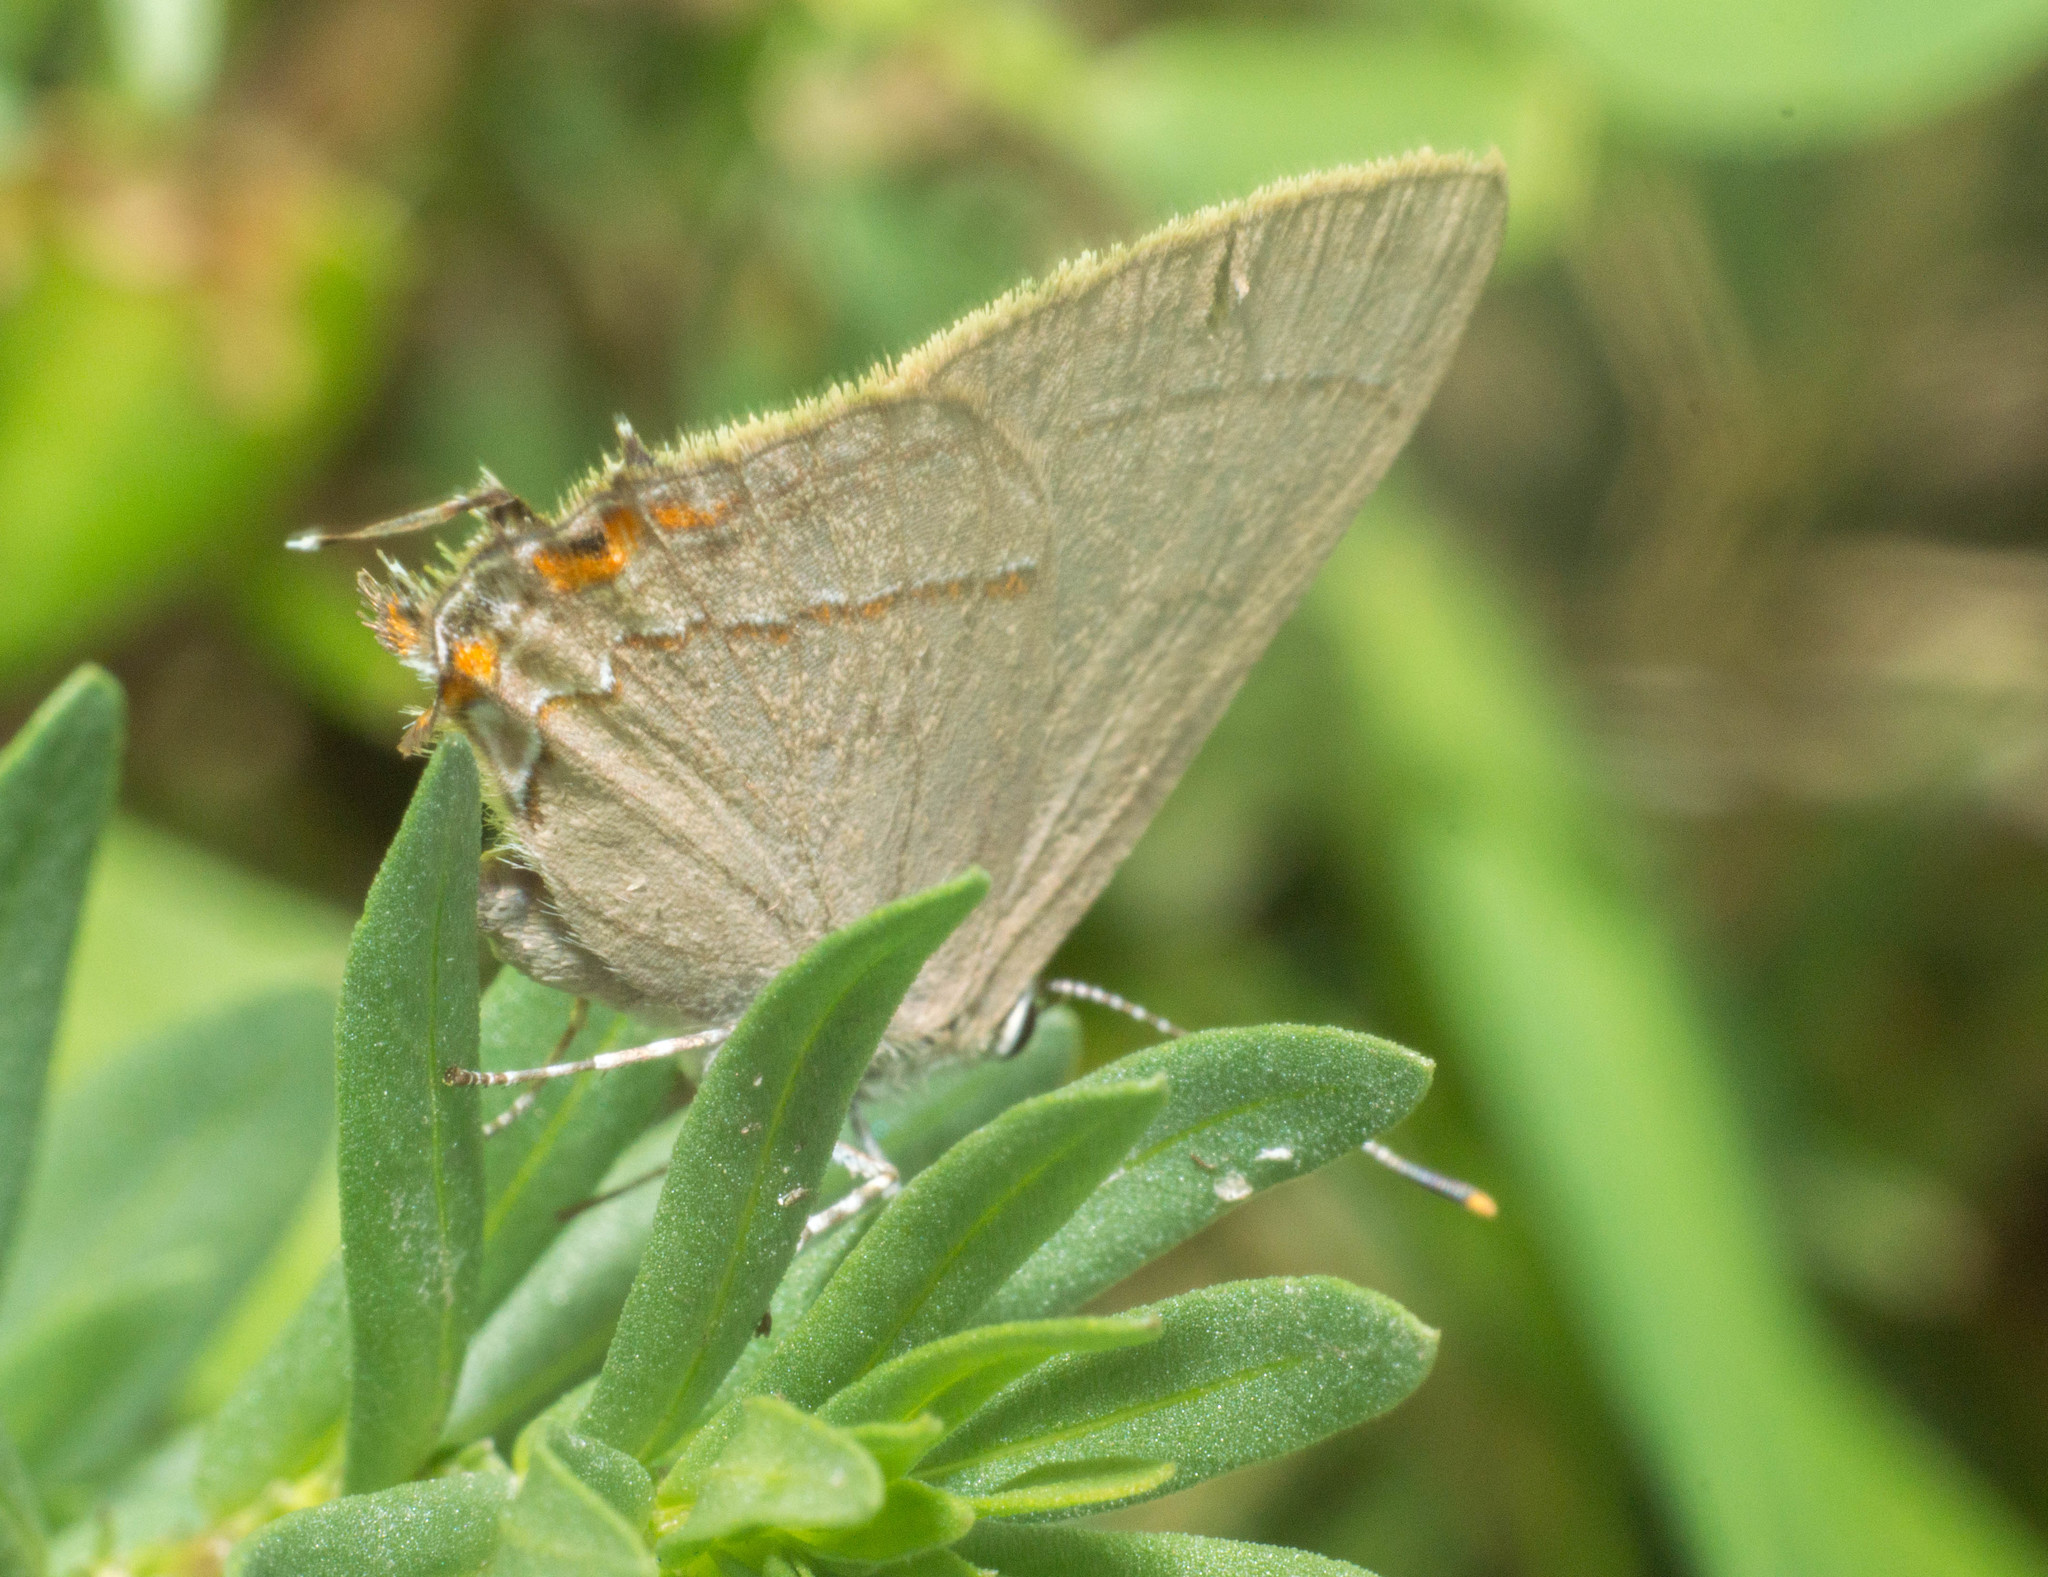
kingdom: Animalia
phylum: Arthropoda
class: Insecta
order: Lepidoptera
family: Lycaenidae
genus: Badecla
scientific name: Badecla
